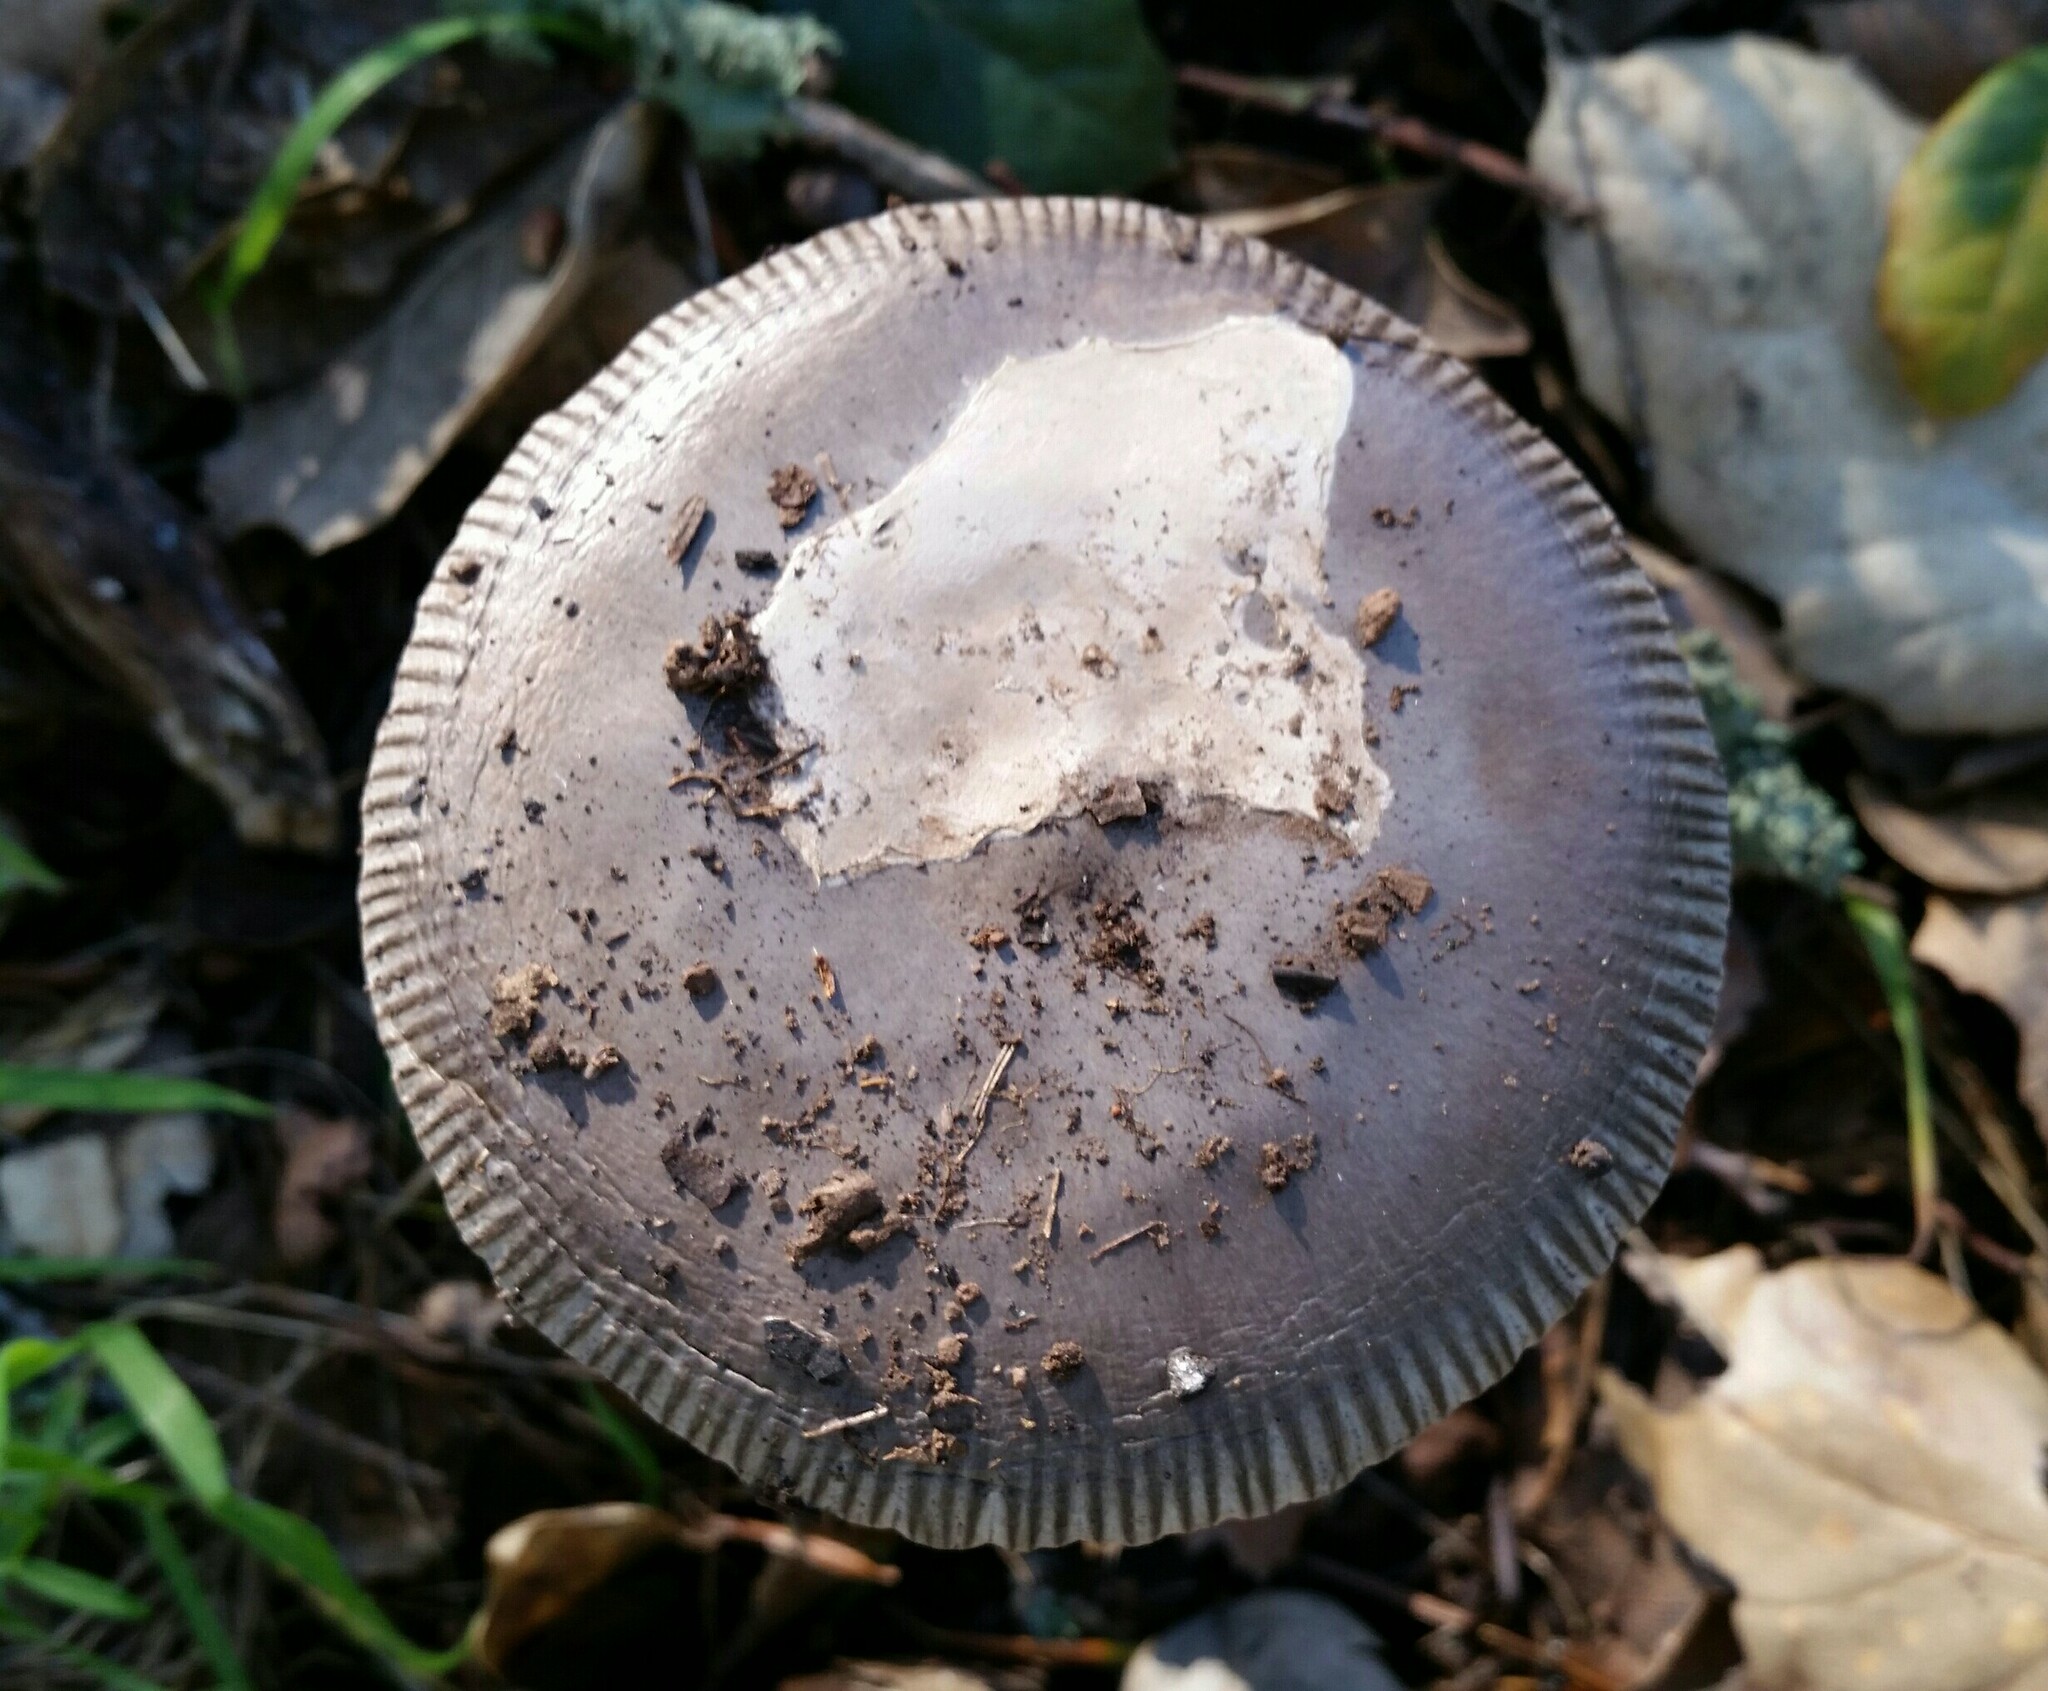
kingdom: Fungi
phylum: Basidiomycota
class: Agaricomycetes
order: Agaricales
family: Amanitaceae
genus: Amanita
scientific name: Amanita constricta
